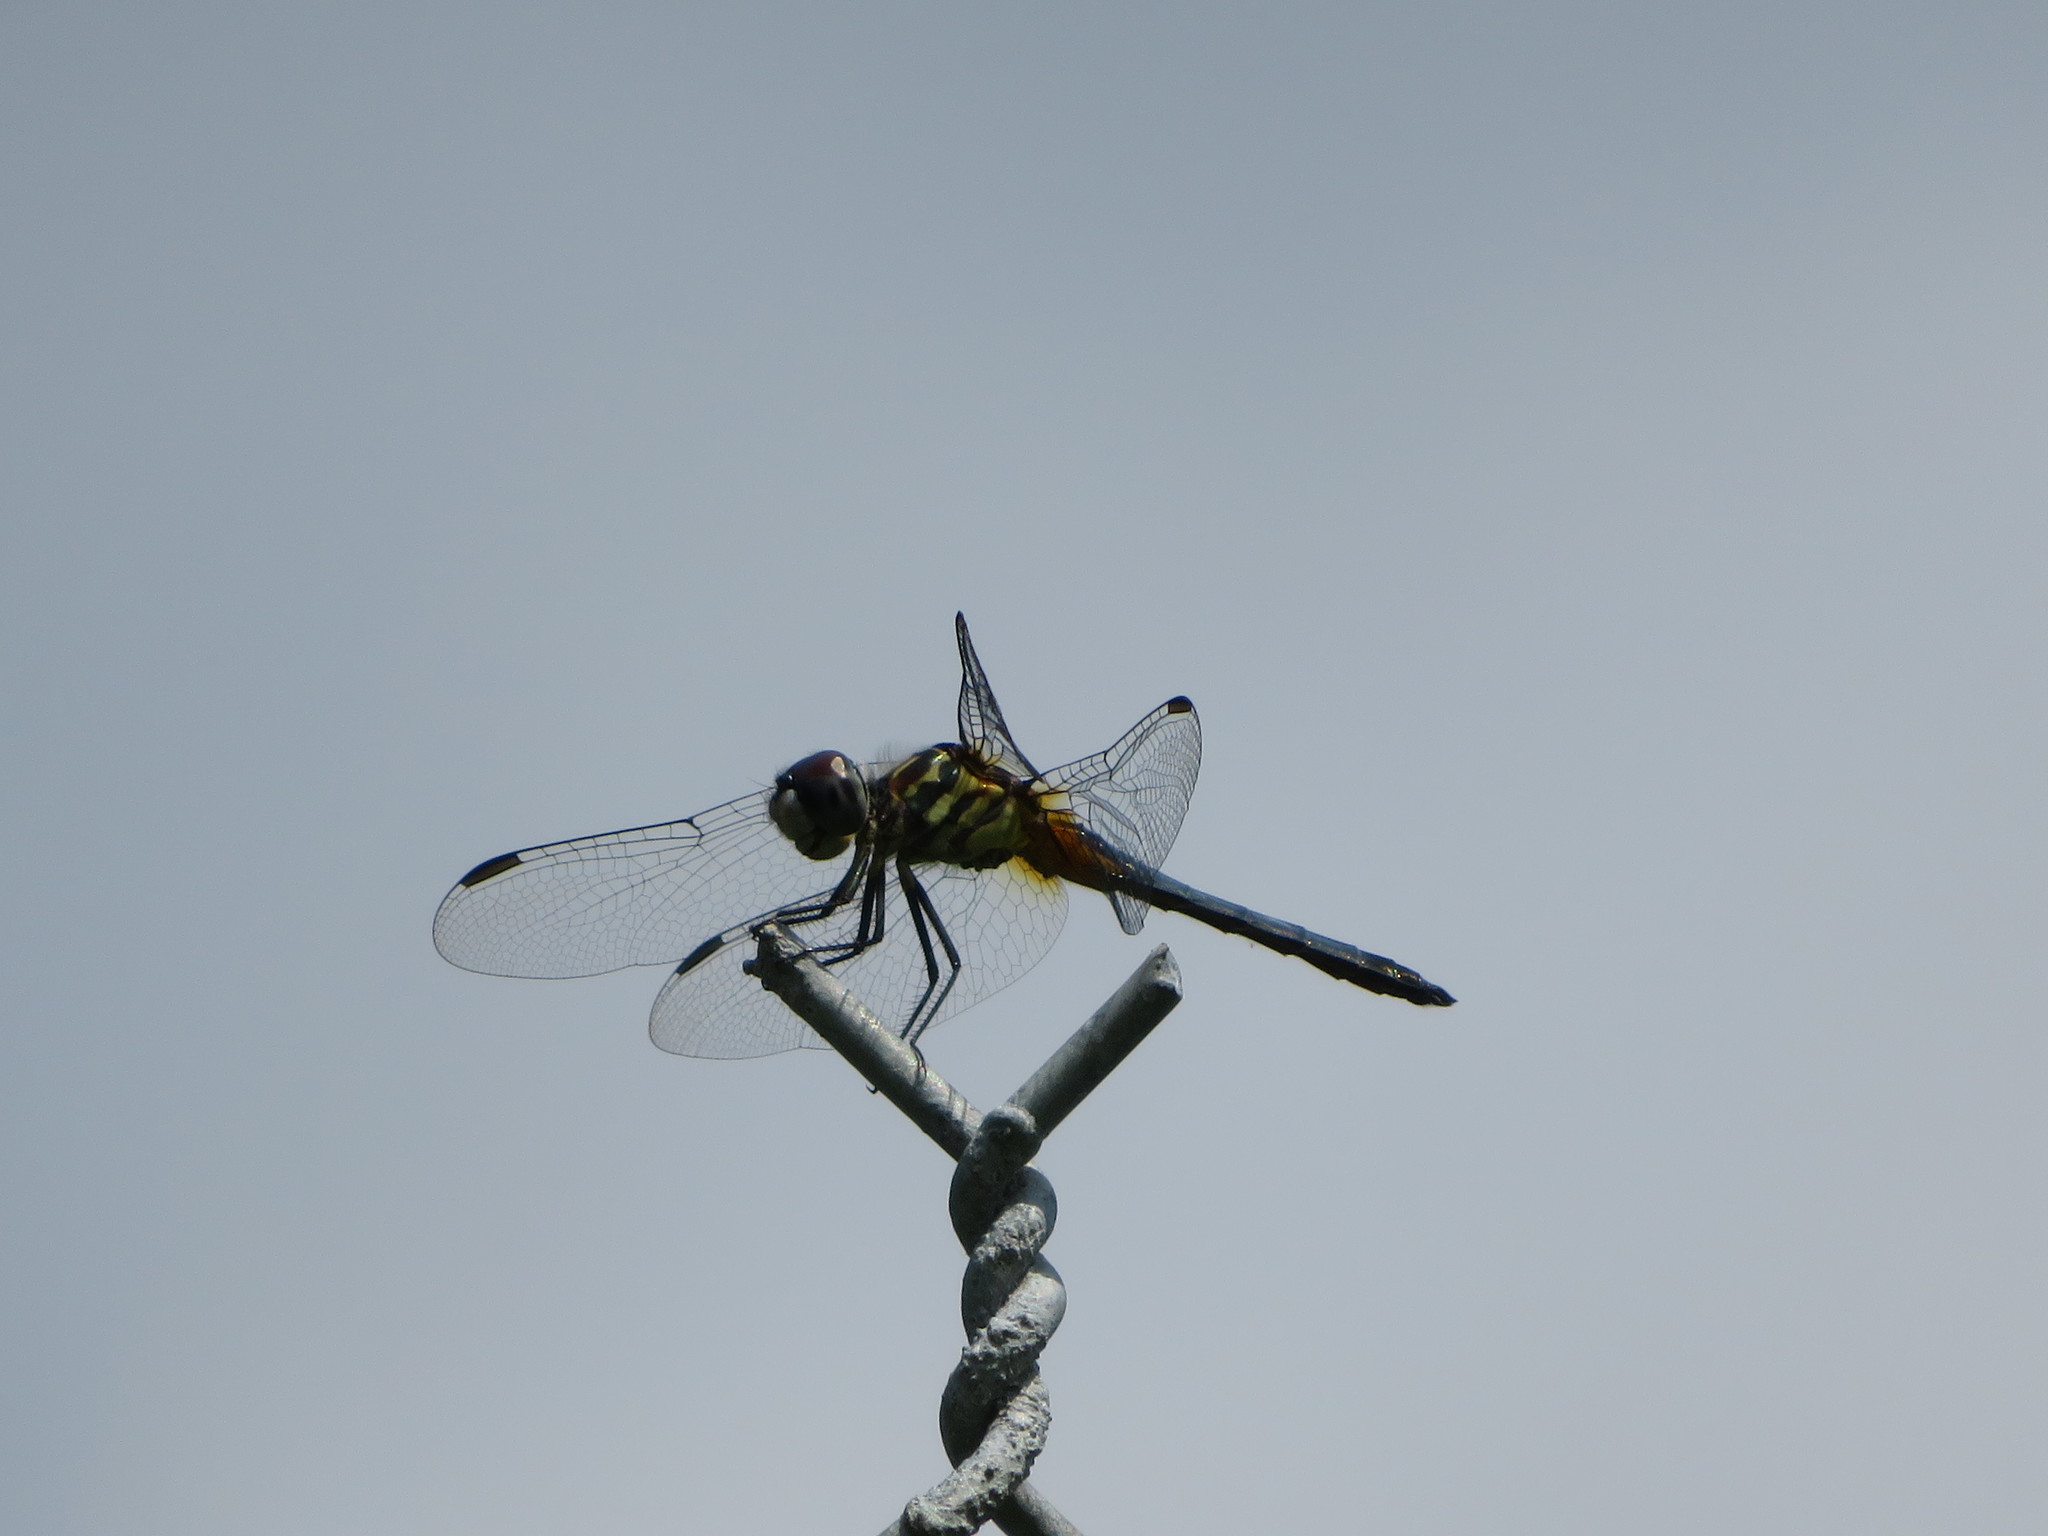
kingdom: Animalia
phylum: Arthropoda
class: Insecta
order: Odonata
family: Libellulidae
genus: Pachydiplax
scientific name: Pachydiplax longipennis
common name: Blue dasher
